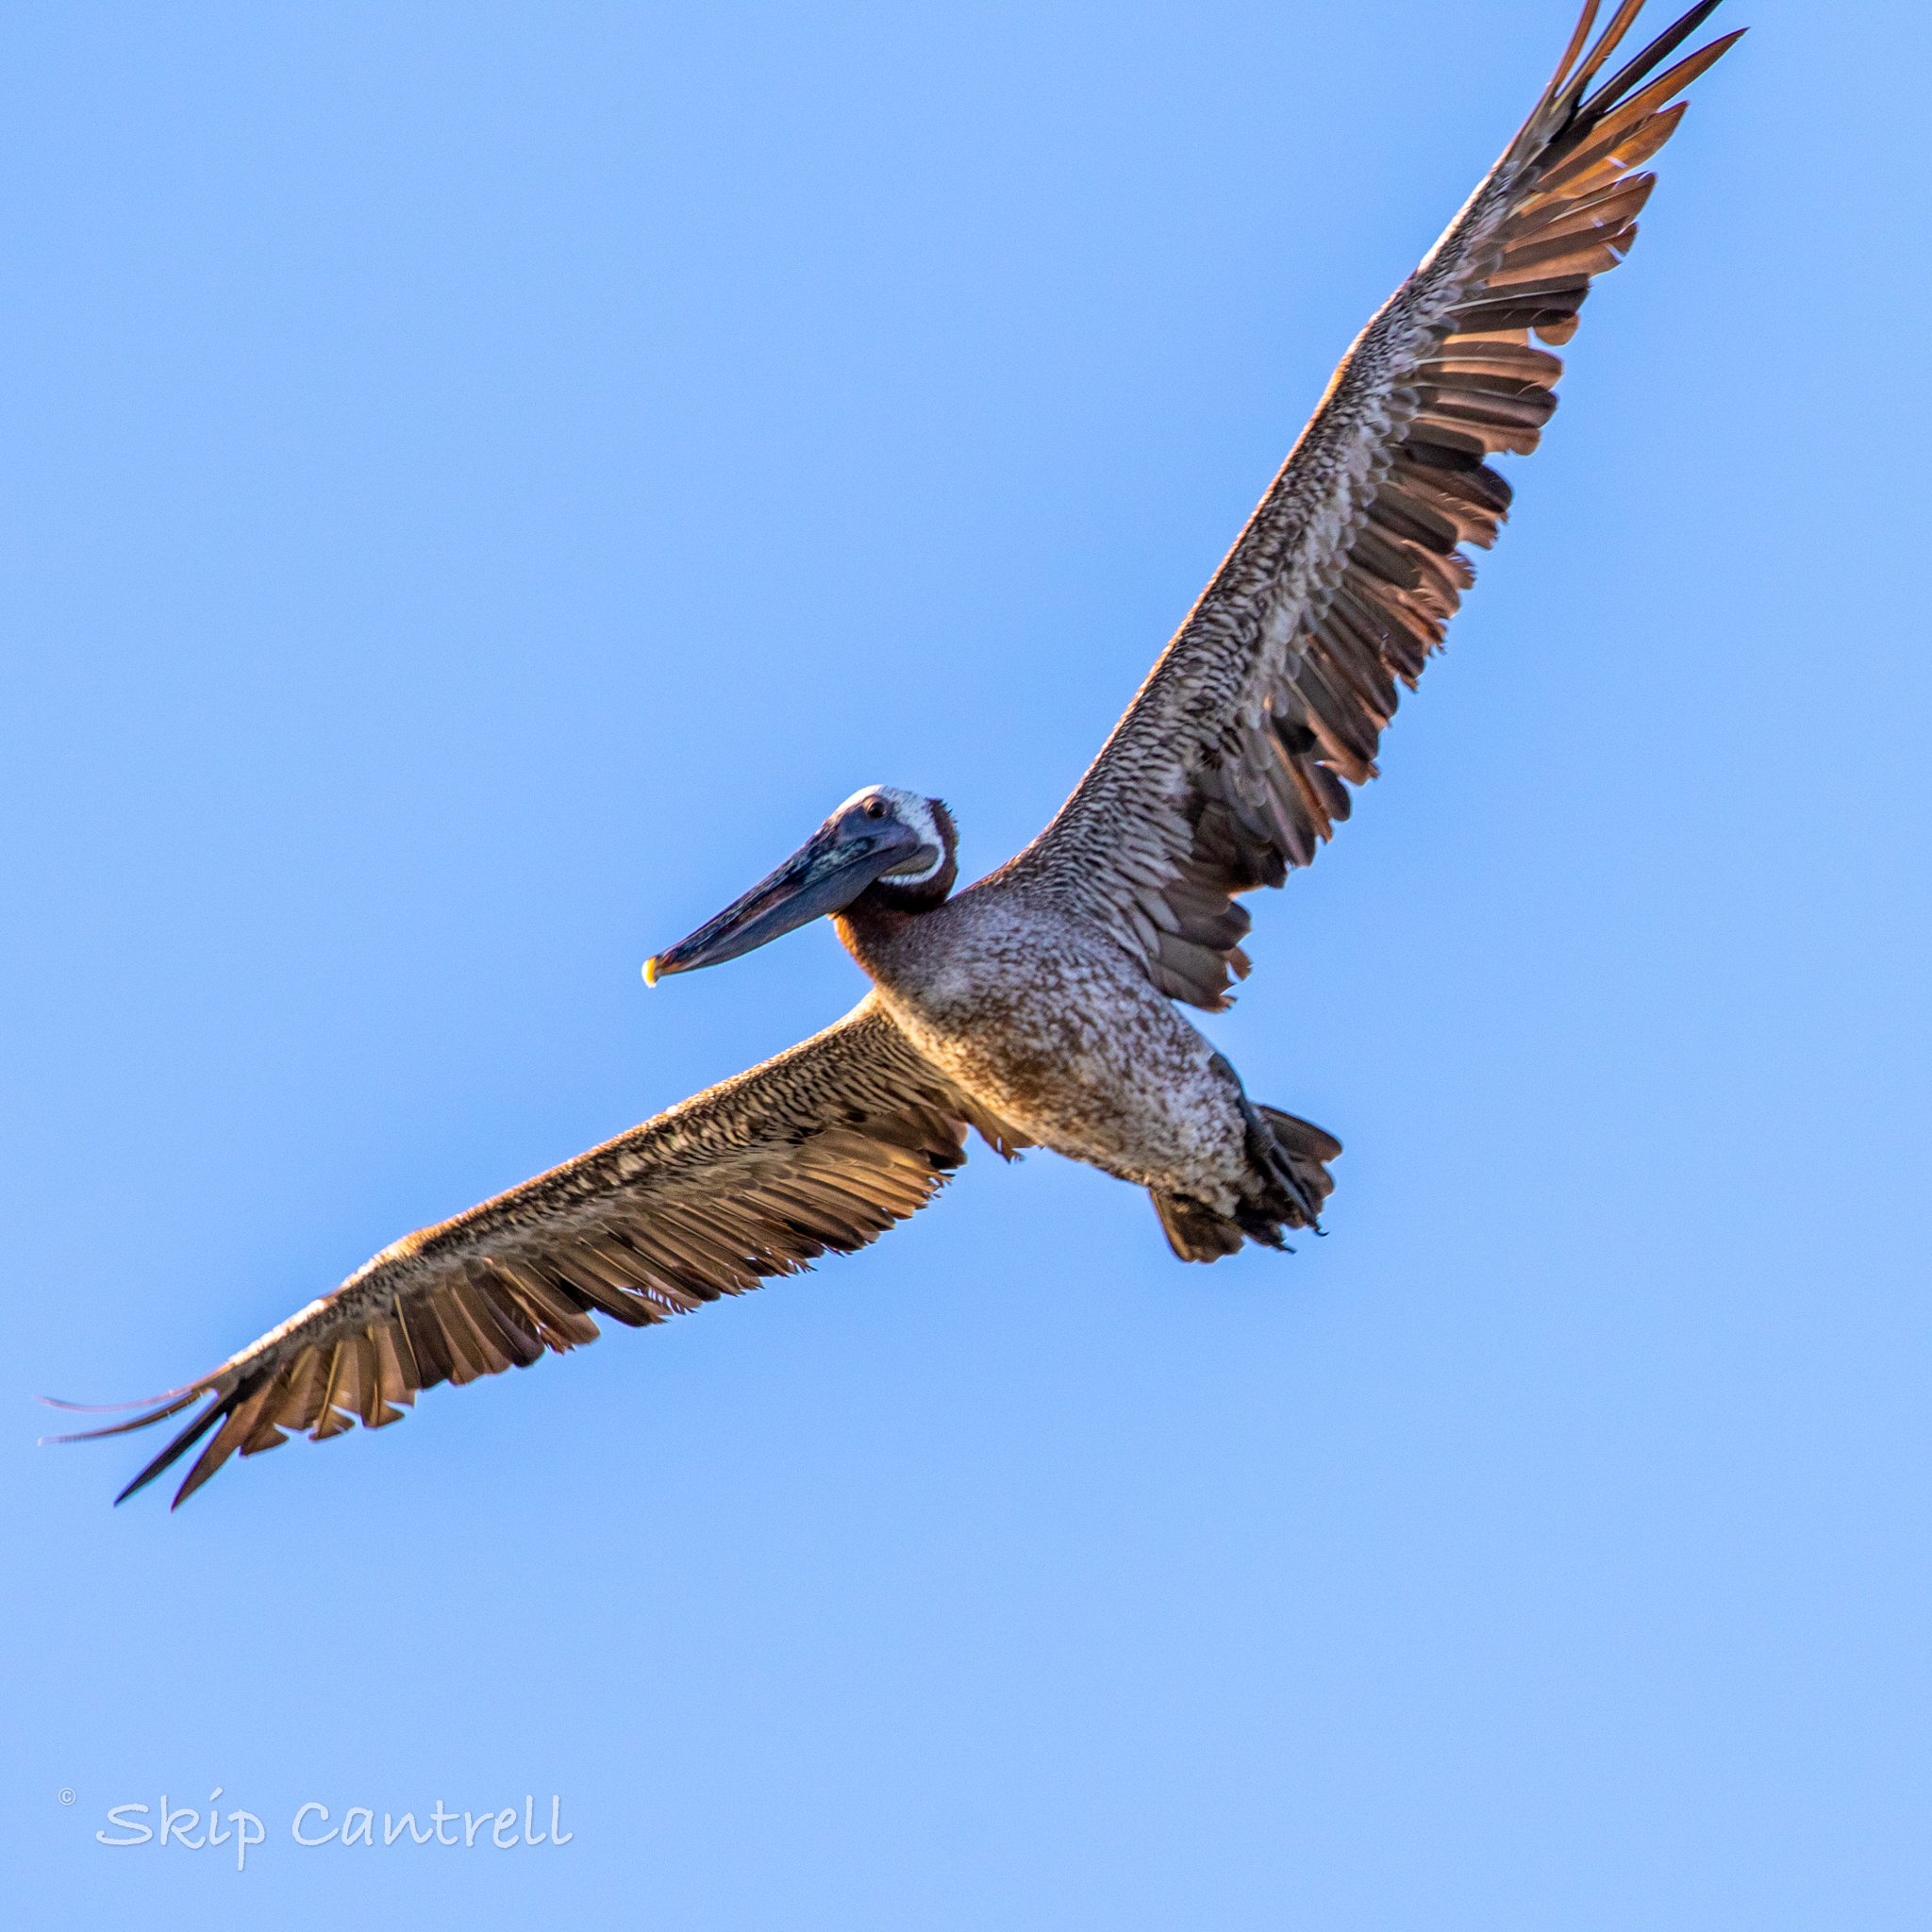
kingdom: Animalia
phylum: Chordata
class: Aves
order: Pelecaniformes
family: Pelecanidae
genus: Pelecanus
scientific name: Pelecanus occidentalis
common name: Brown pelican
